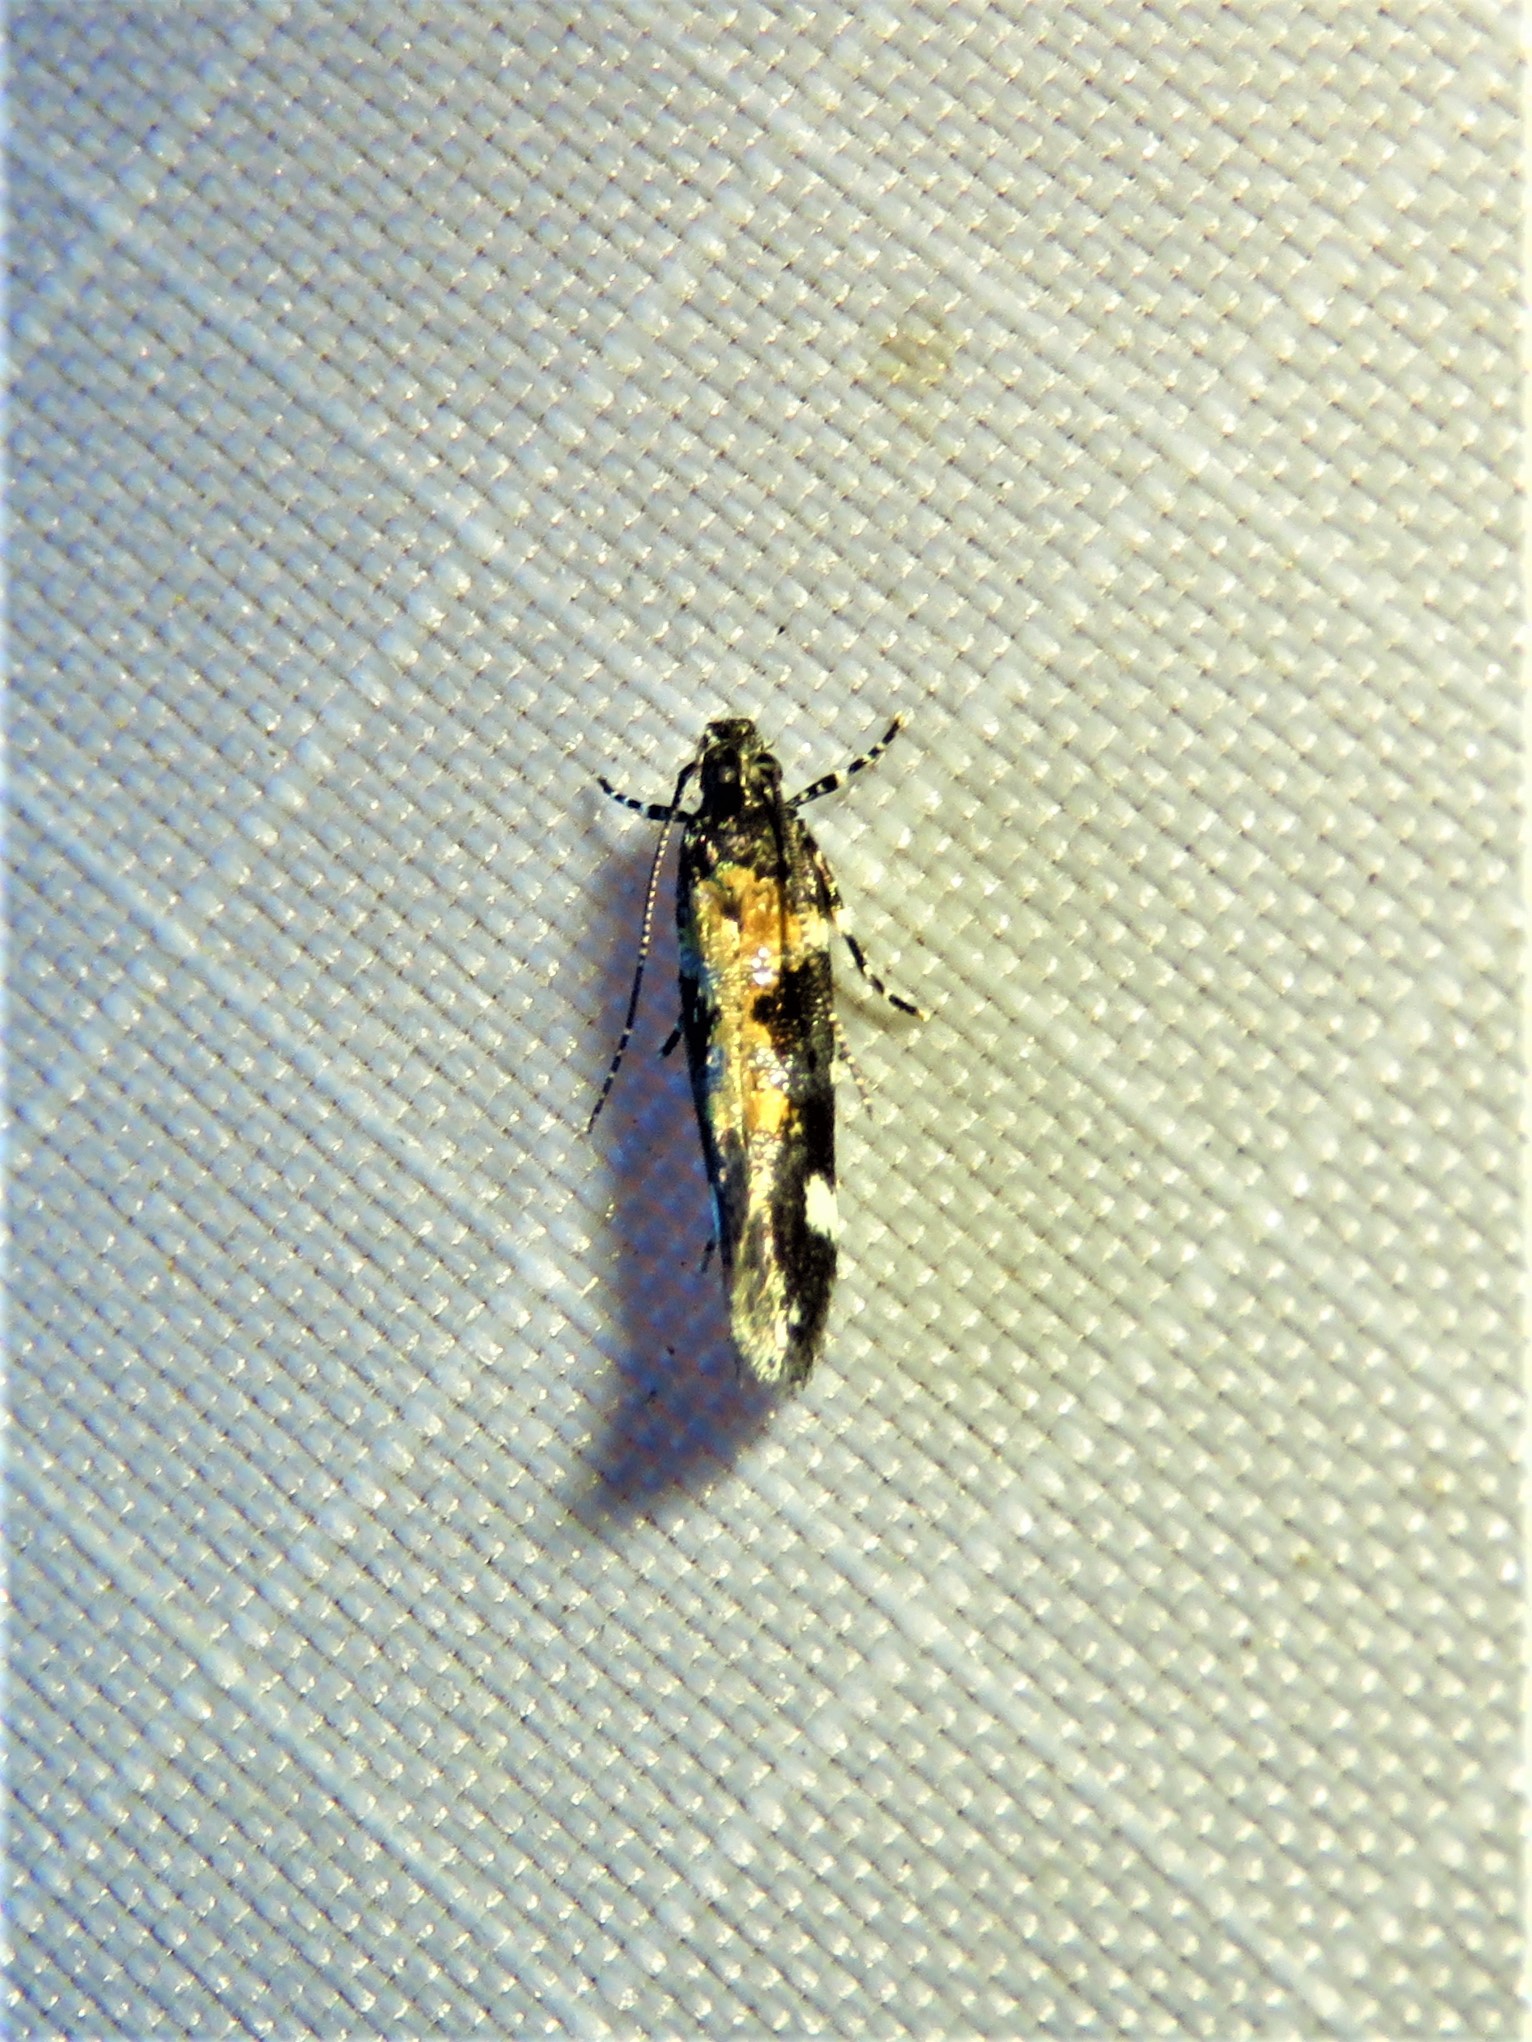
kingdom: Animalia
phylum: Arthropoda
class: Insecta
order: Lepidoptera
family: Gelechiidae
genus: Stegasta
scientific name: Stegasta bosqueella
